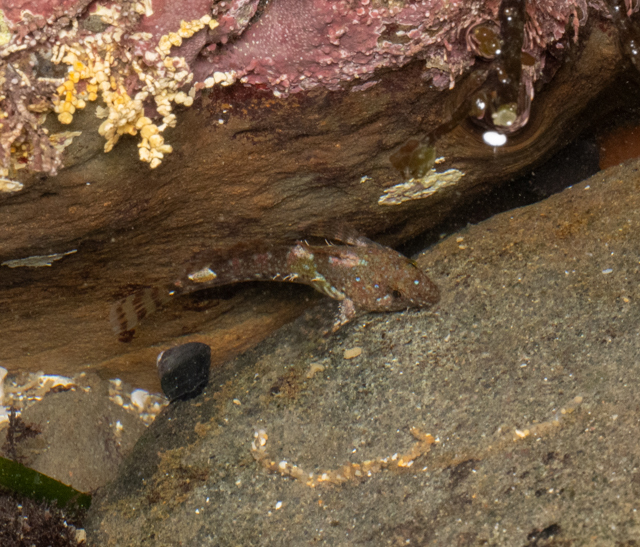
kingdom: Animalia
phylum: Chordata
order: Scorpaeniformes
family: Cottidae
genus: Clinocottus
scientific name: Clinocottus analis
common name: Woolly sculpin
